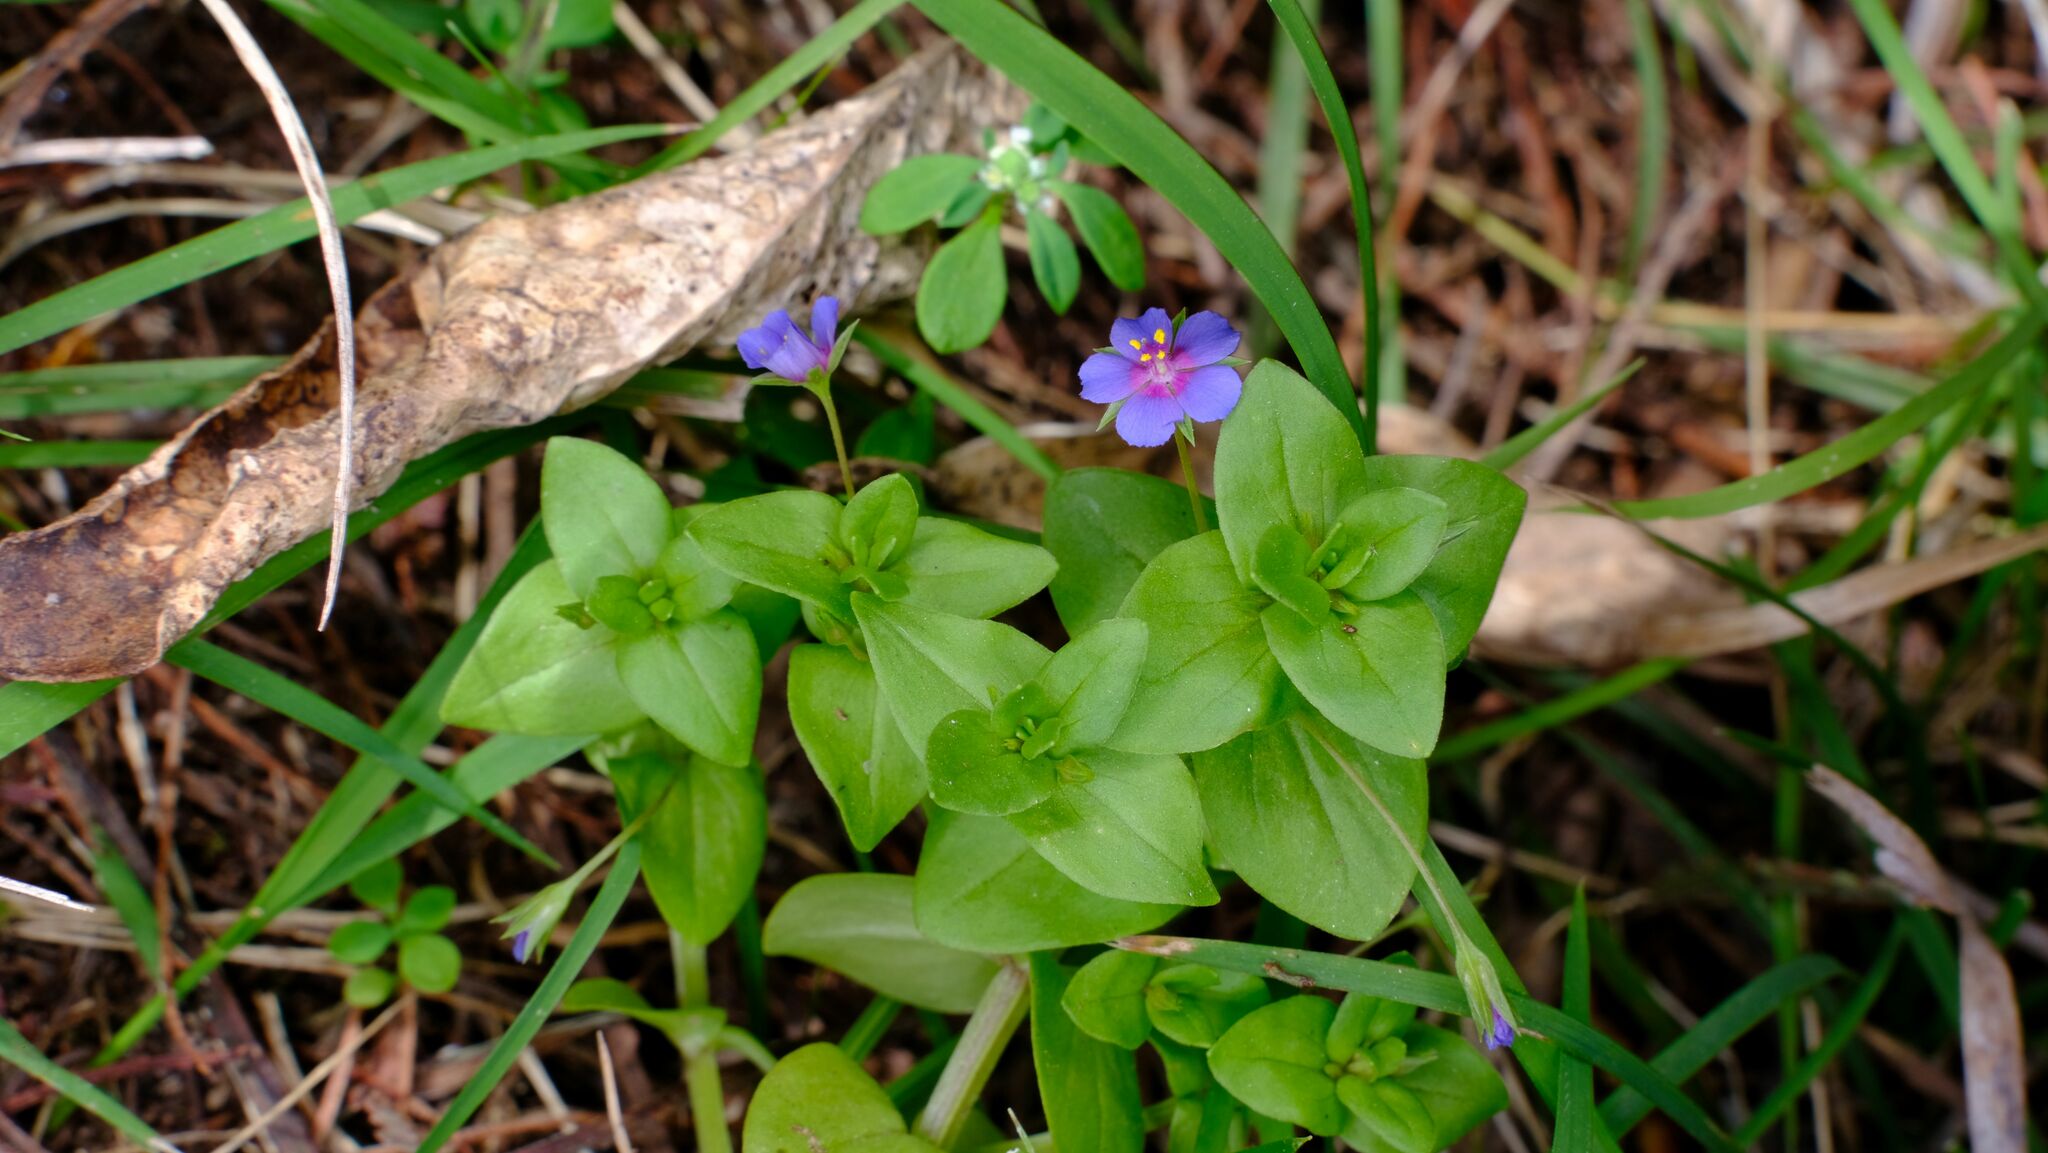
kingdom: Plantae
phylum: Tracheophyta
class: Magnoliopsida
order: Ericales
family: Primulaceae
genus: Lysimachia
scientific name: Lysimachia loeflingii
